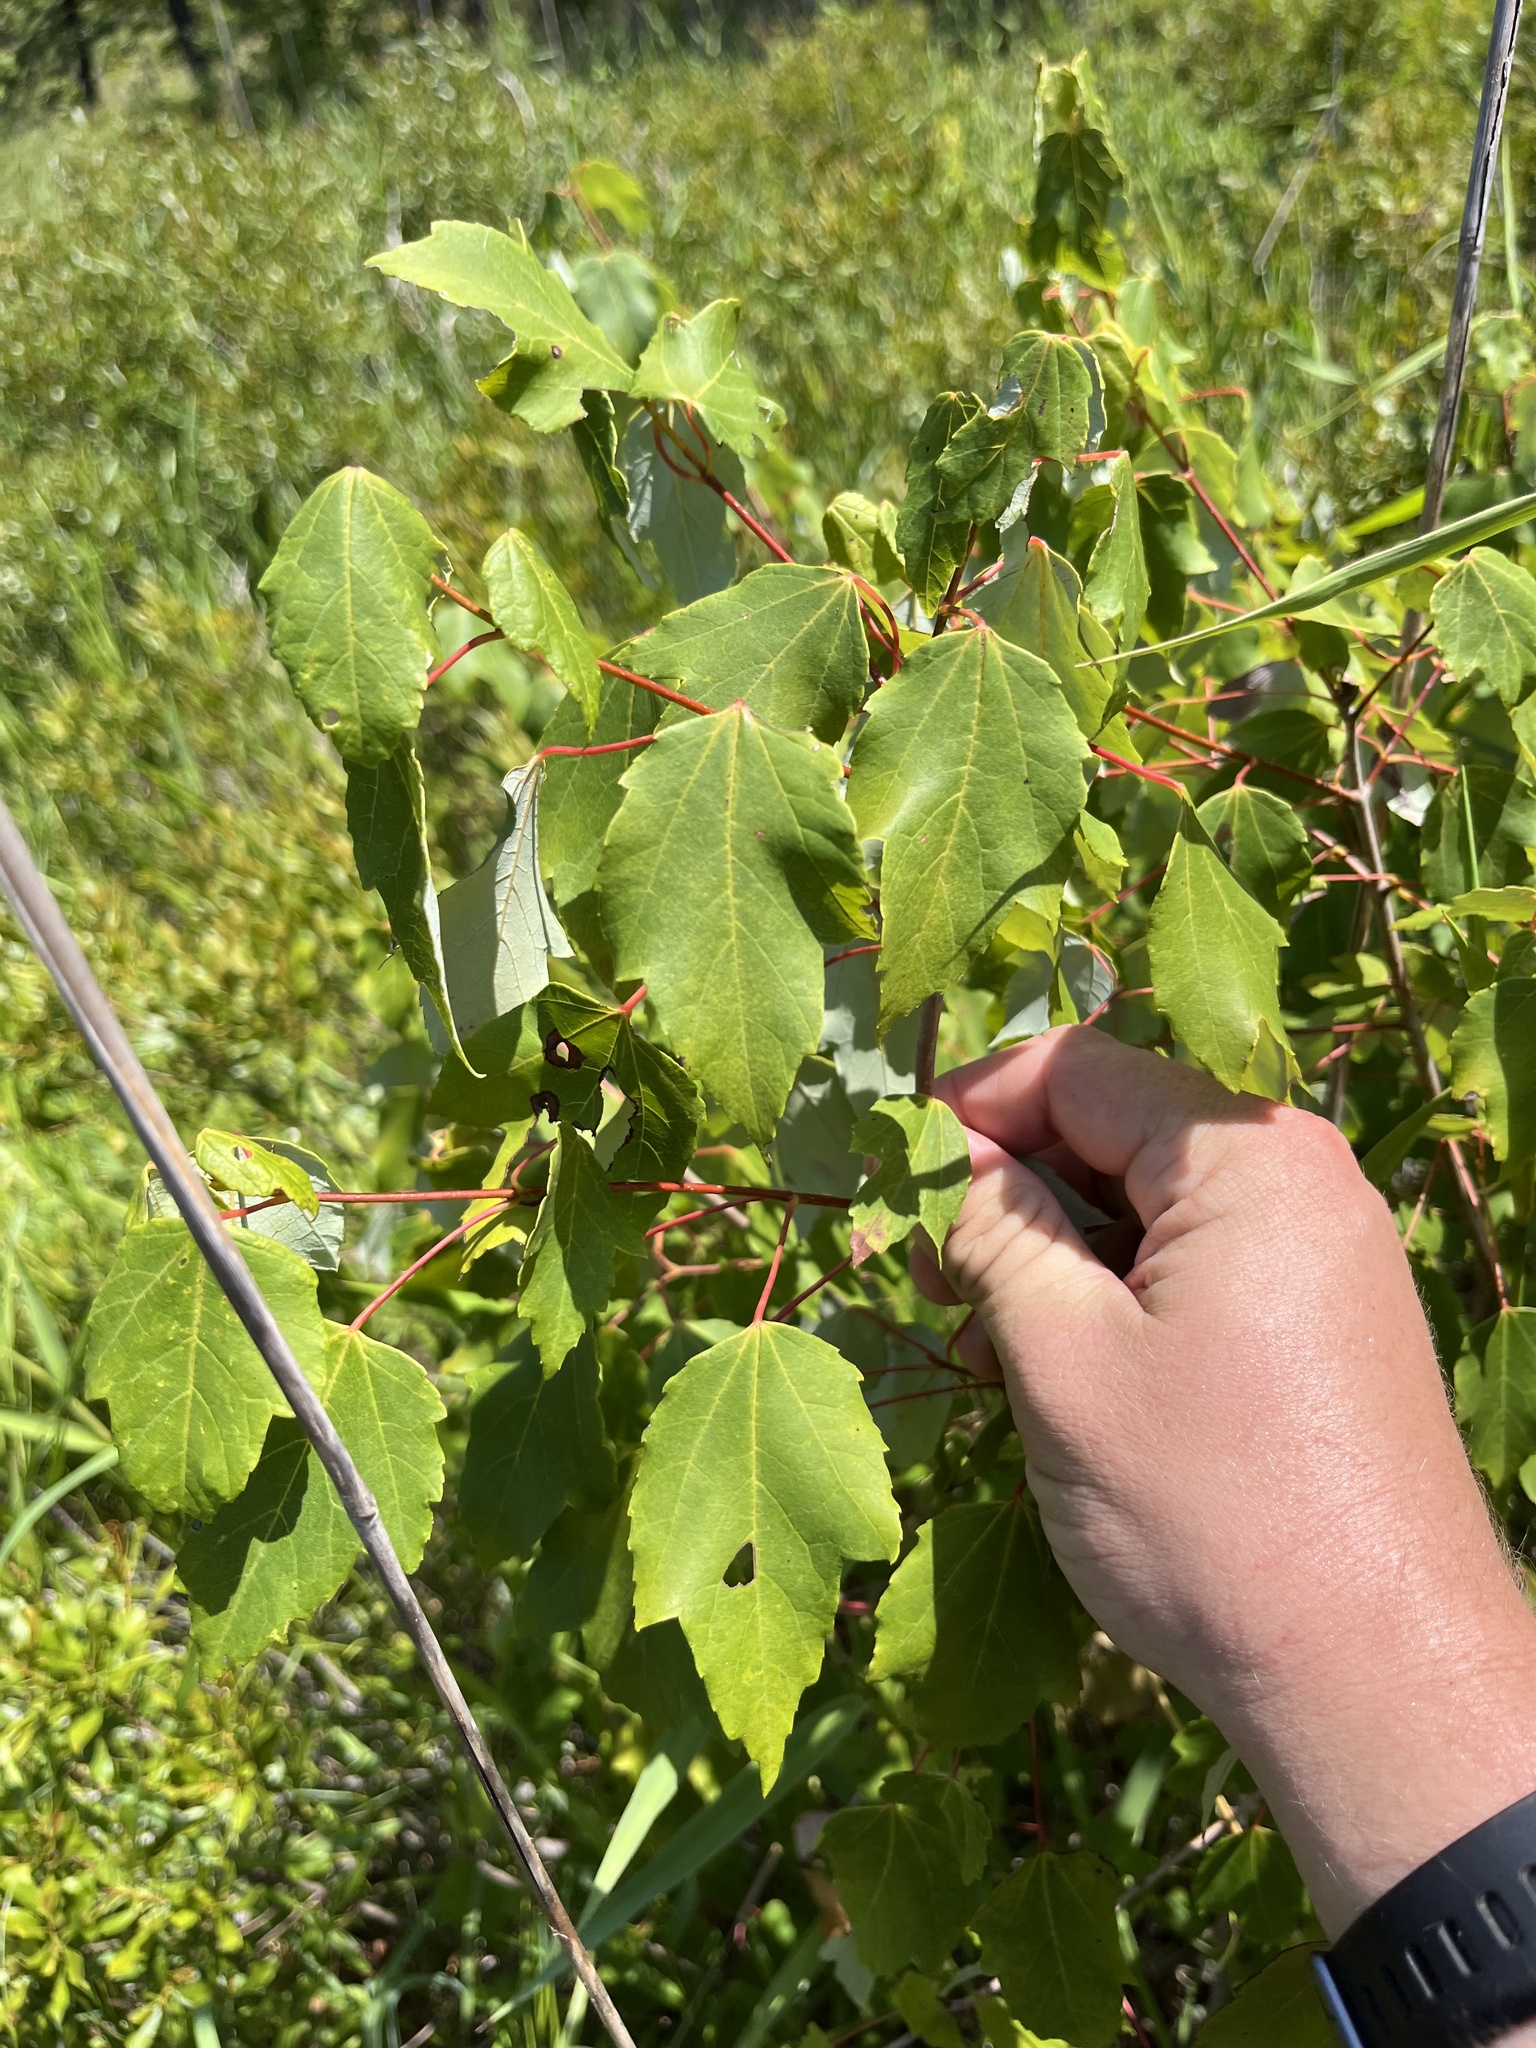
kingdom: Plantae
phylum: Tracheophyta
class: Magnoliopsida
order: Sapindales
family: Sapindaceae
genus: Acer
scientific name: Acer rubrum
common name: Red maple
